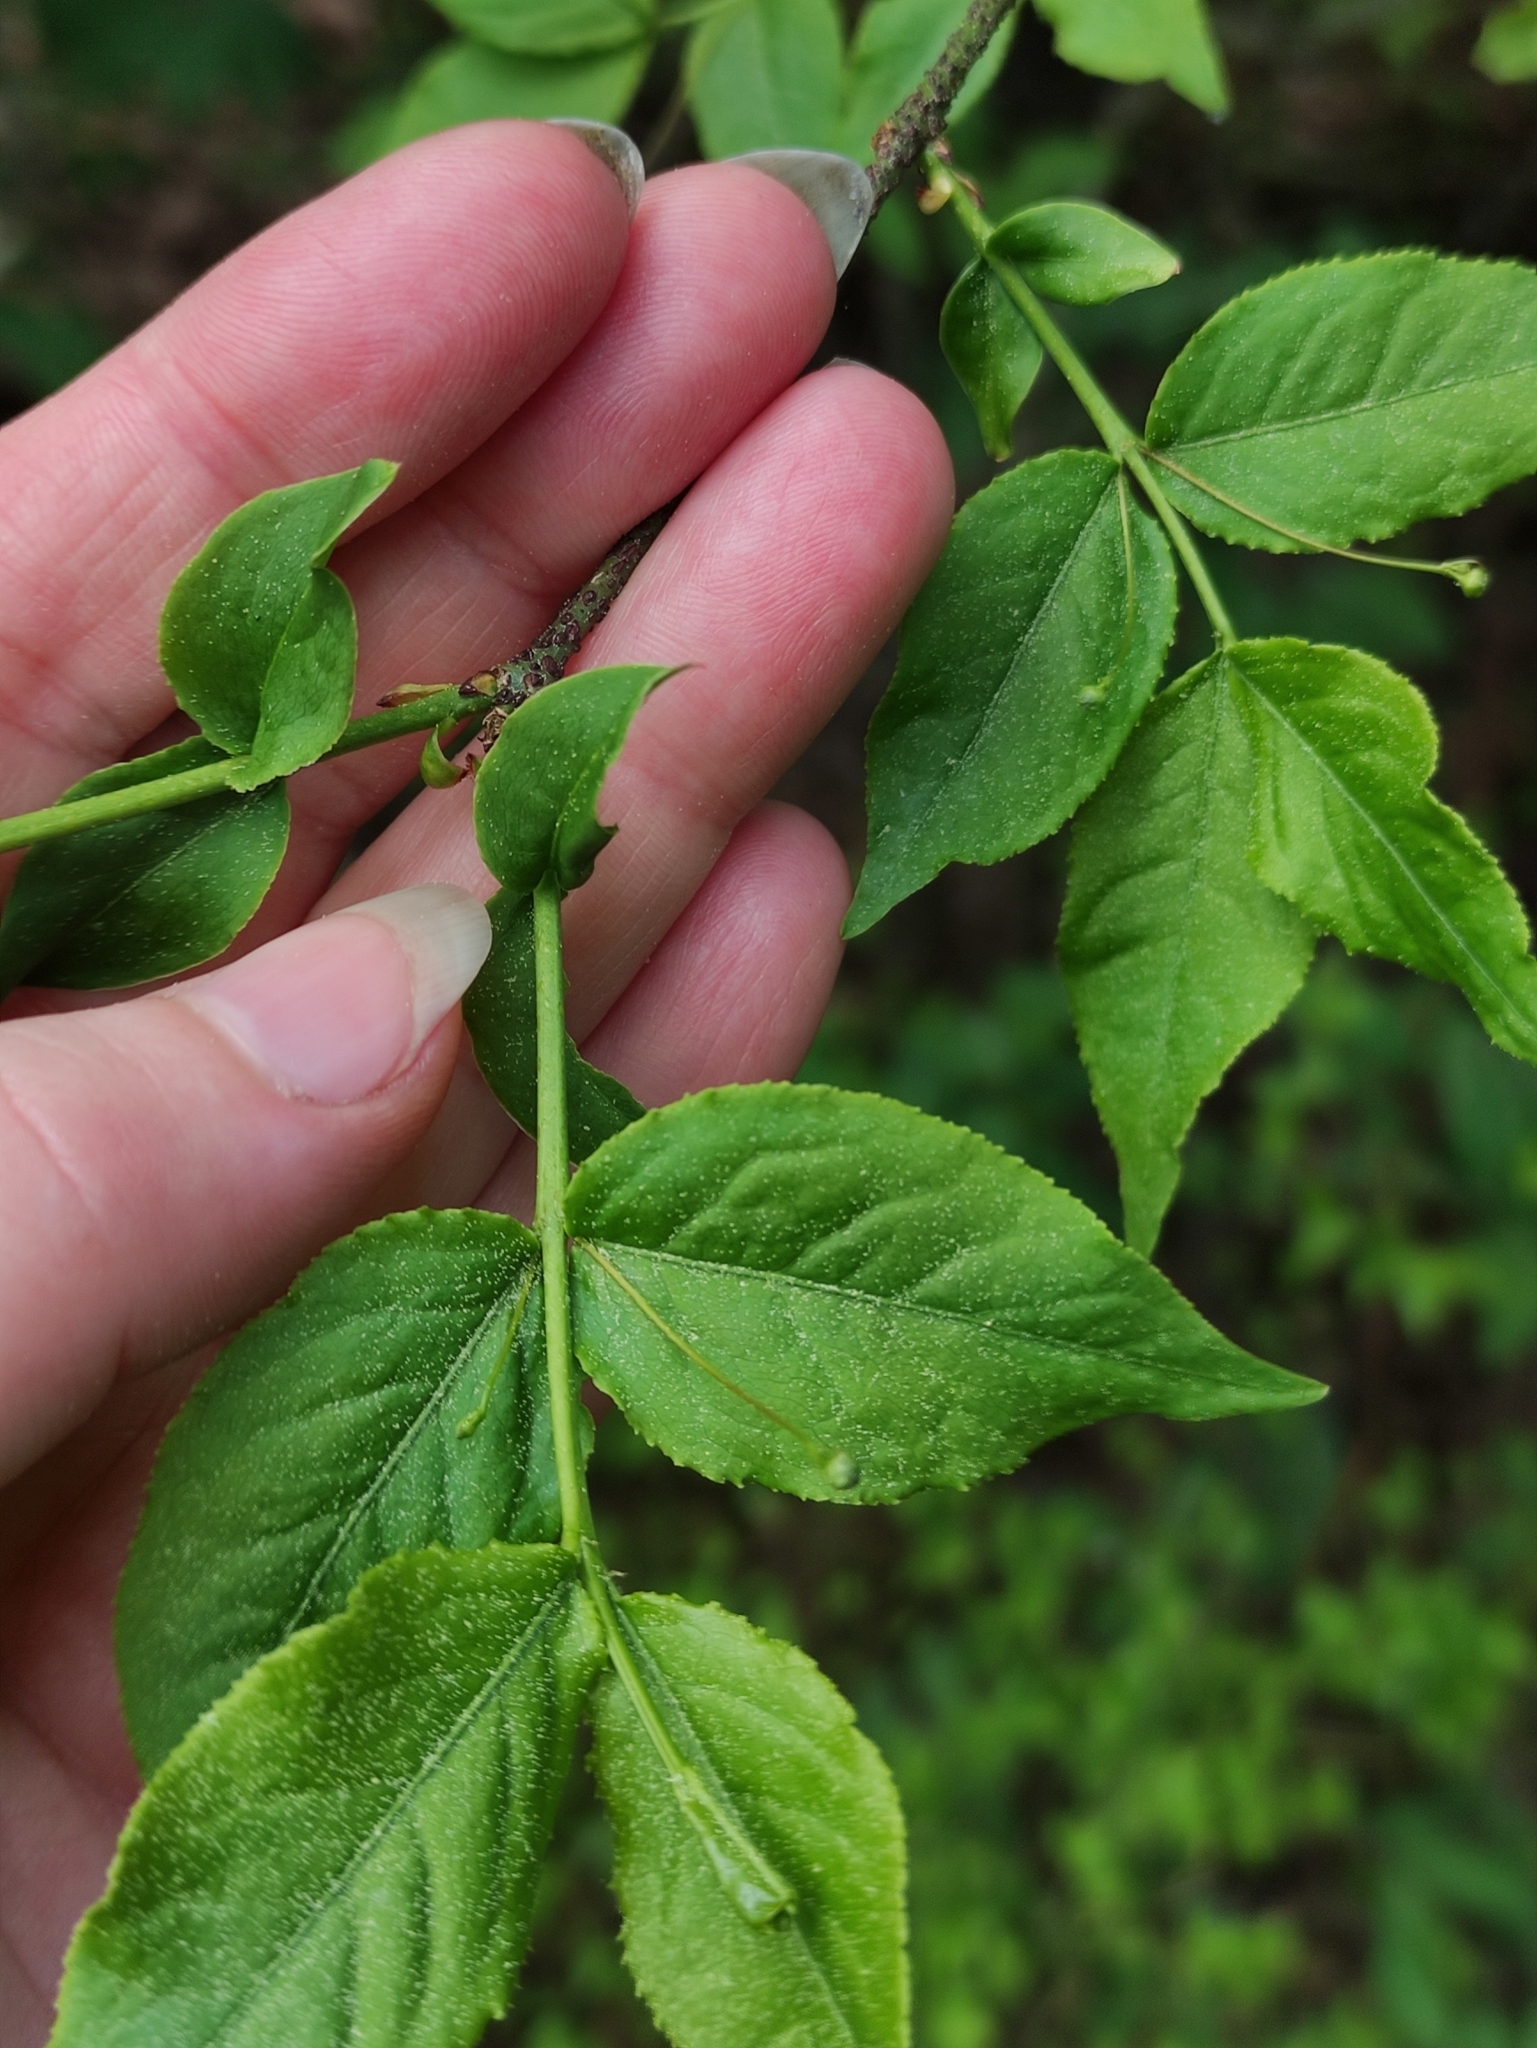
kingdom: Plantae
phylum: Tracheophyta
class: Magnoliopsida
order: Celastrales
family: Celastraceae
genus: Euonymus
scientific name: Euonymus verrucosus
